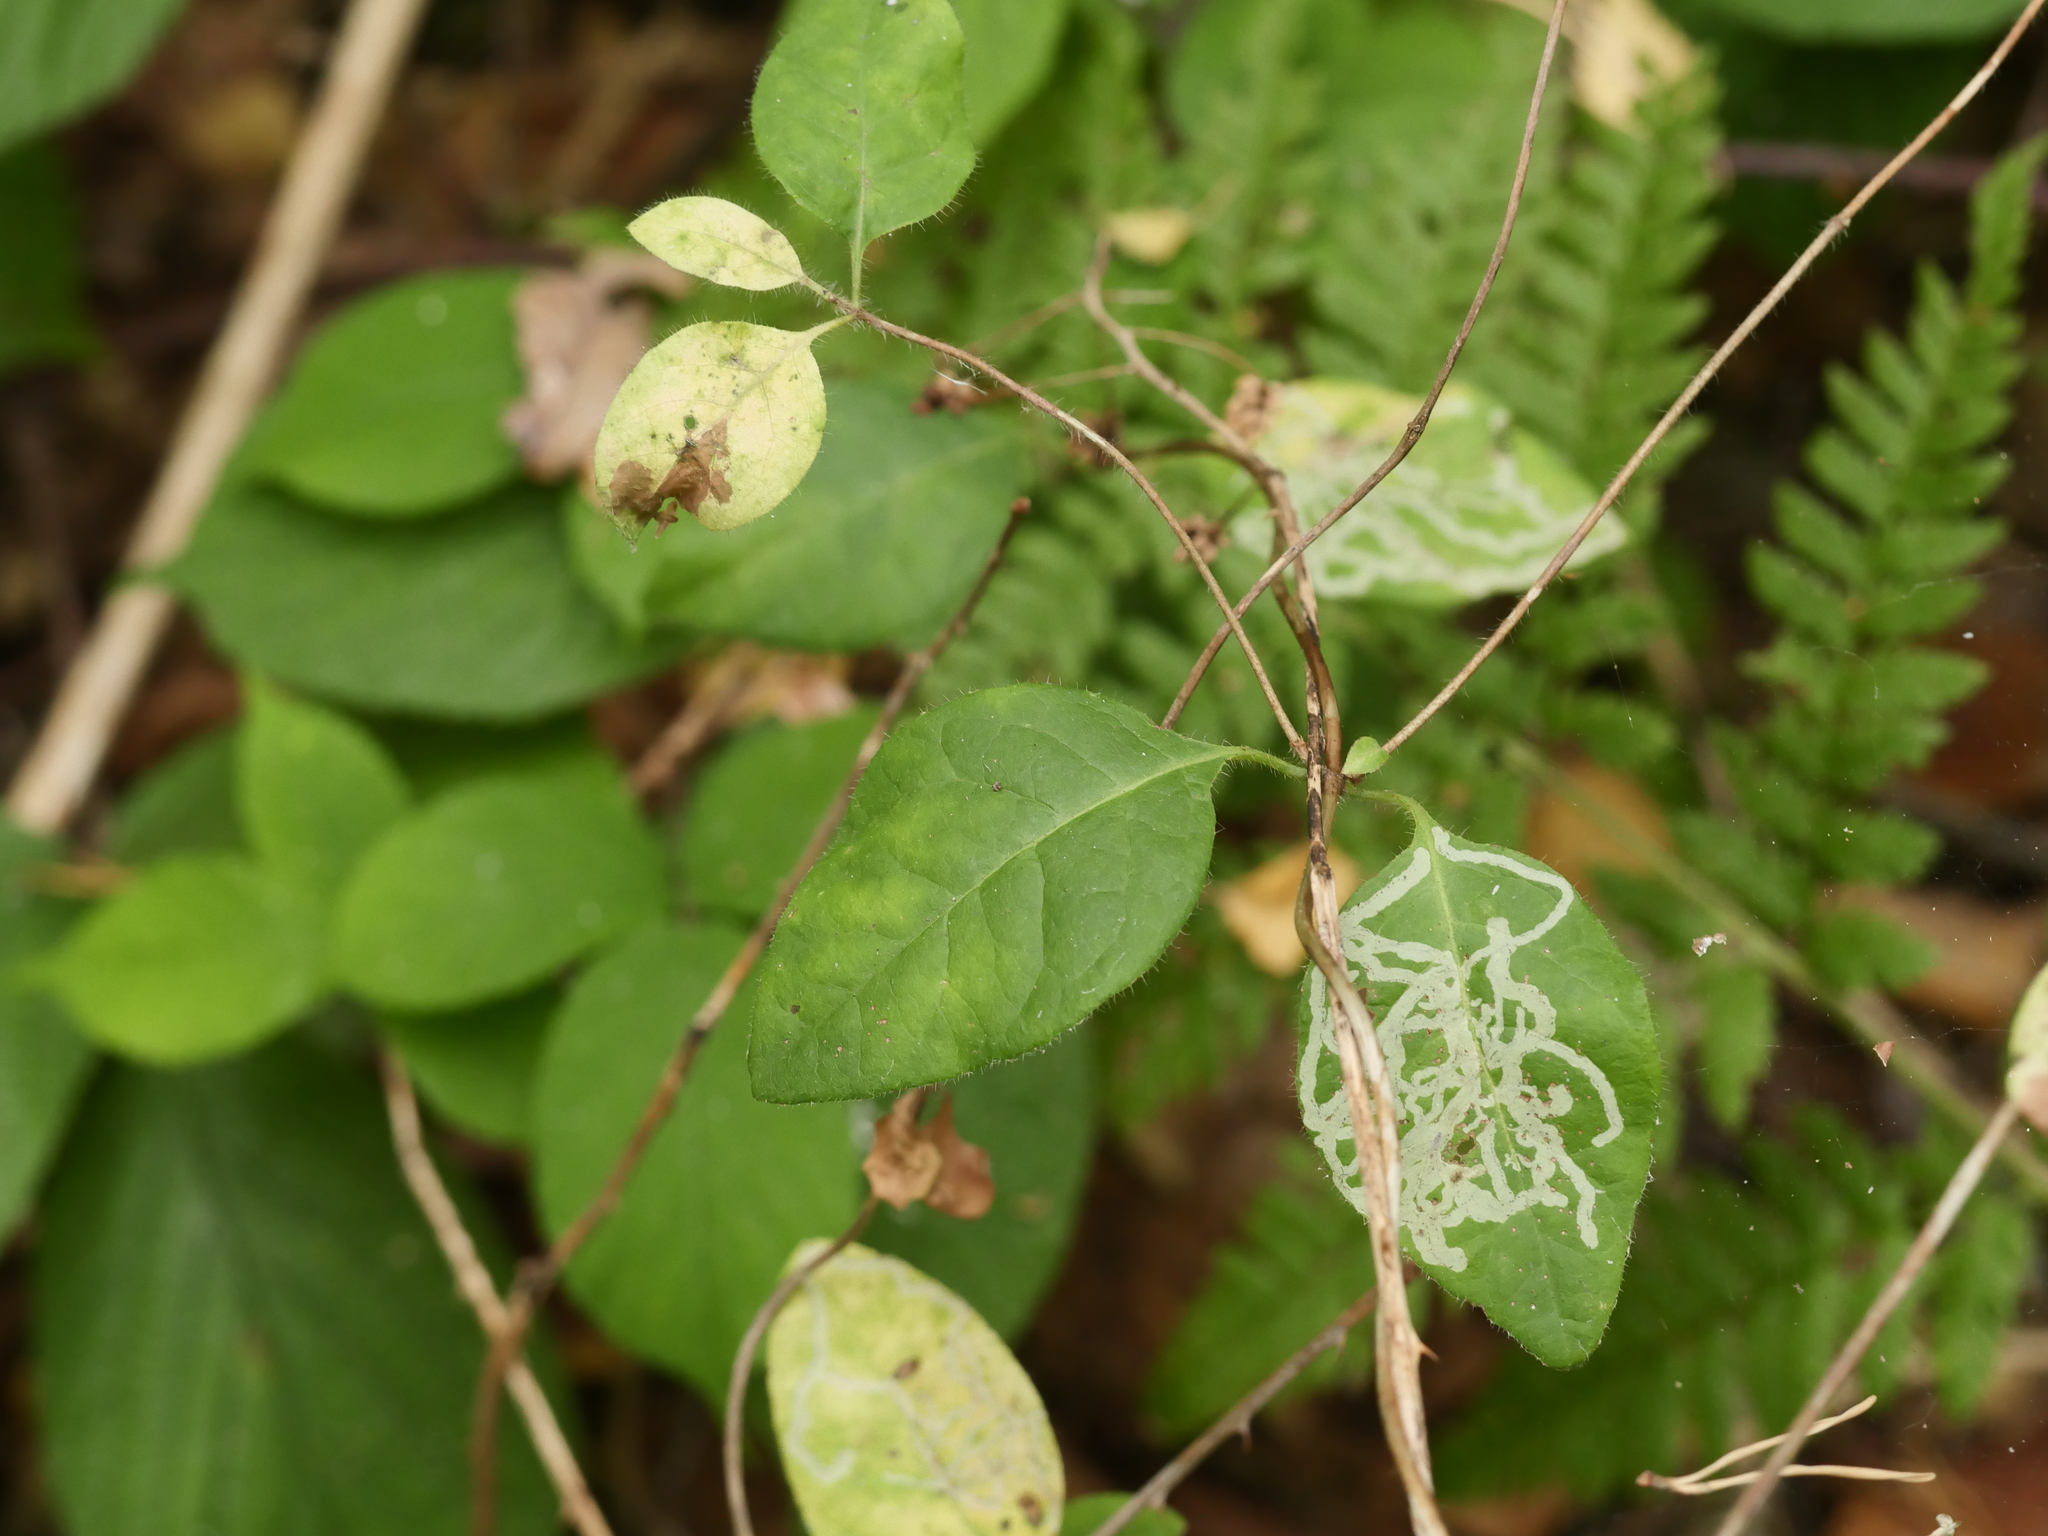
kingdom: Plantae
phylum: Tracheophyta
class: Magnoliopsida
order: Dipsacales
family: Caprifoliaceae
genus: Lonicera
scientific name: Lonicera periclymenum
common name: European honeysuckle
